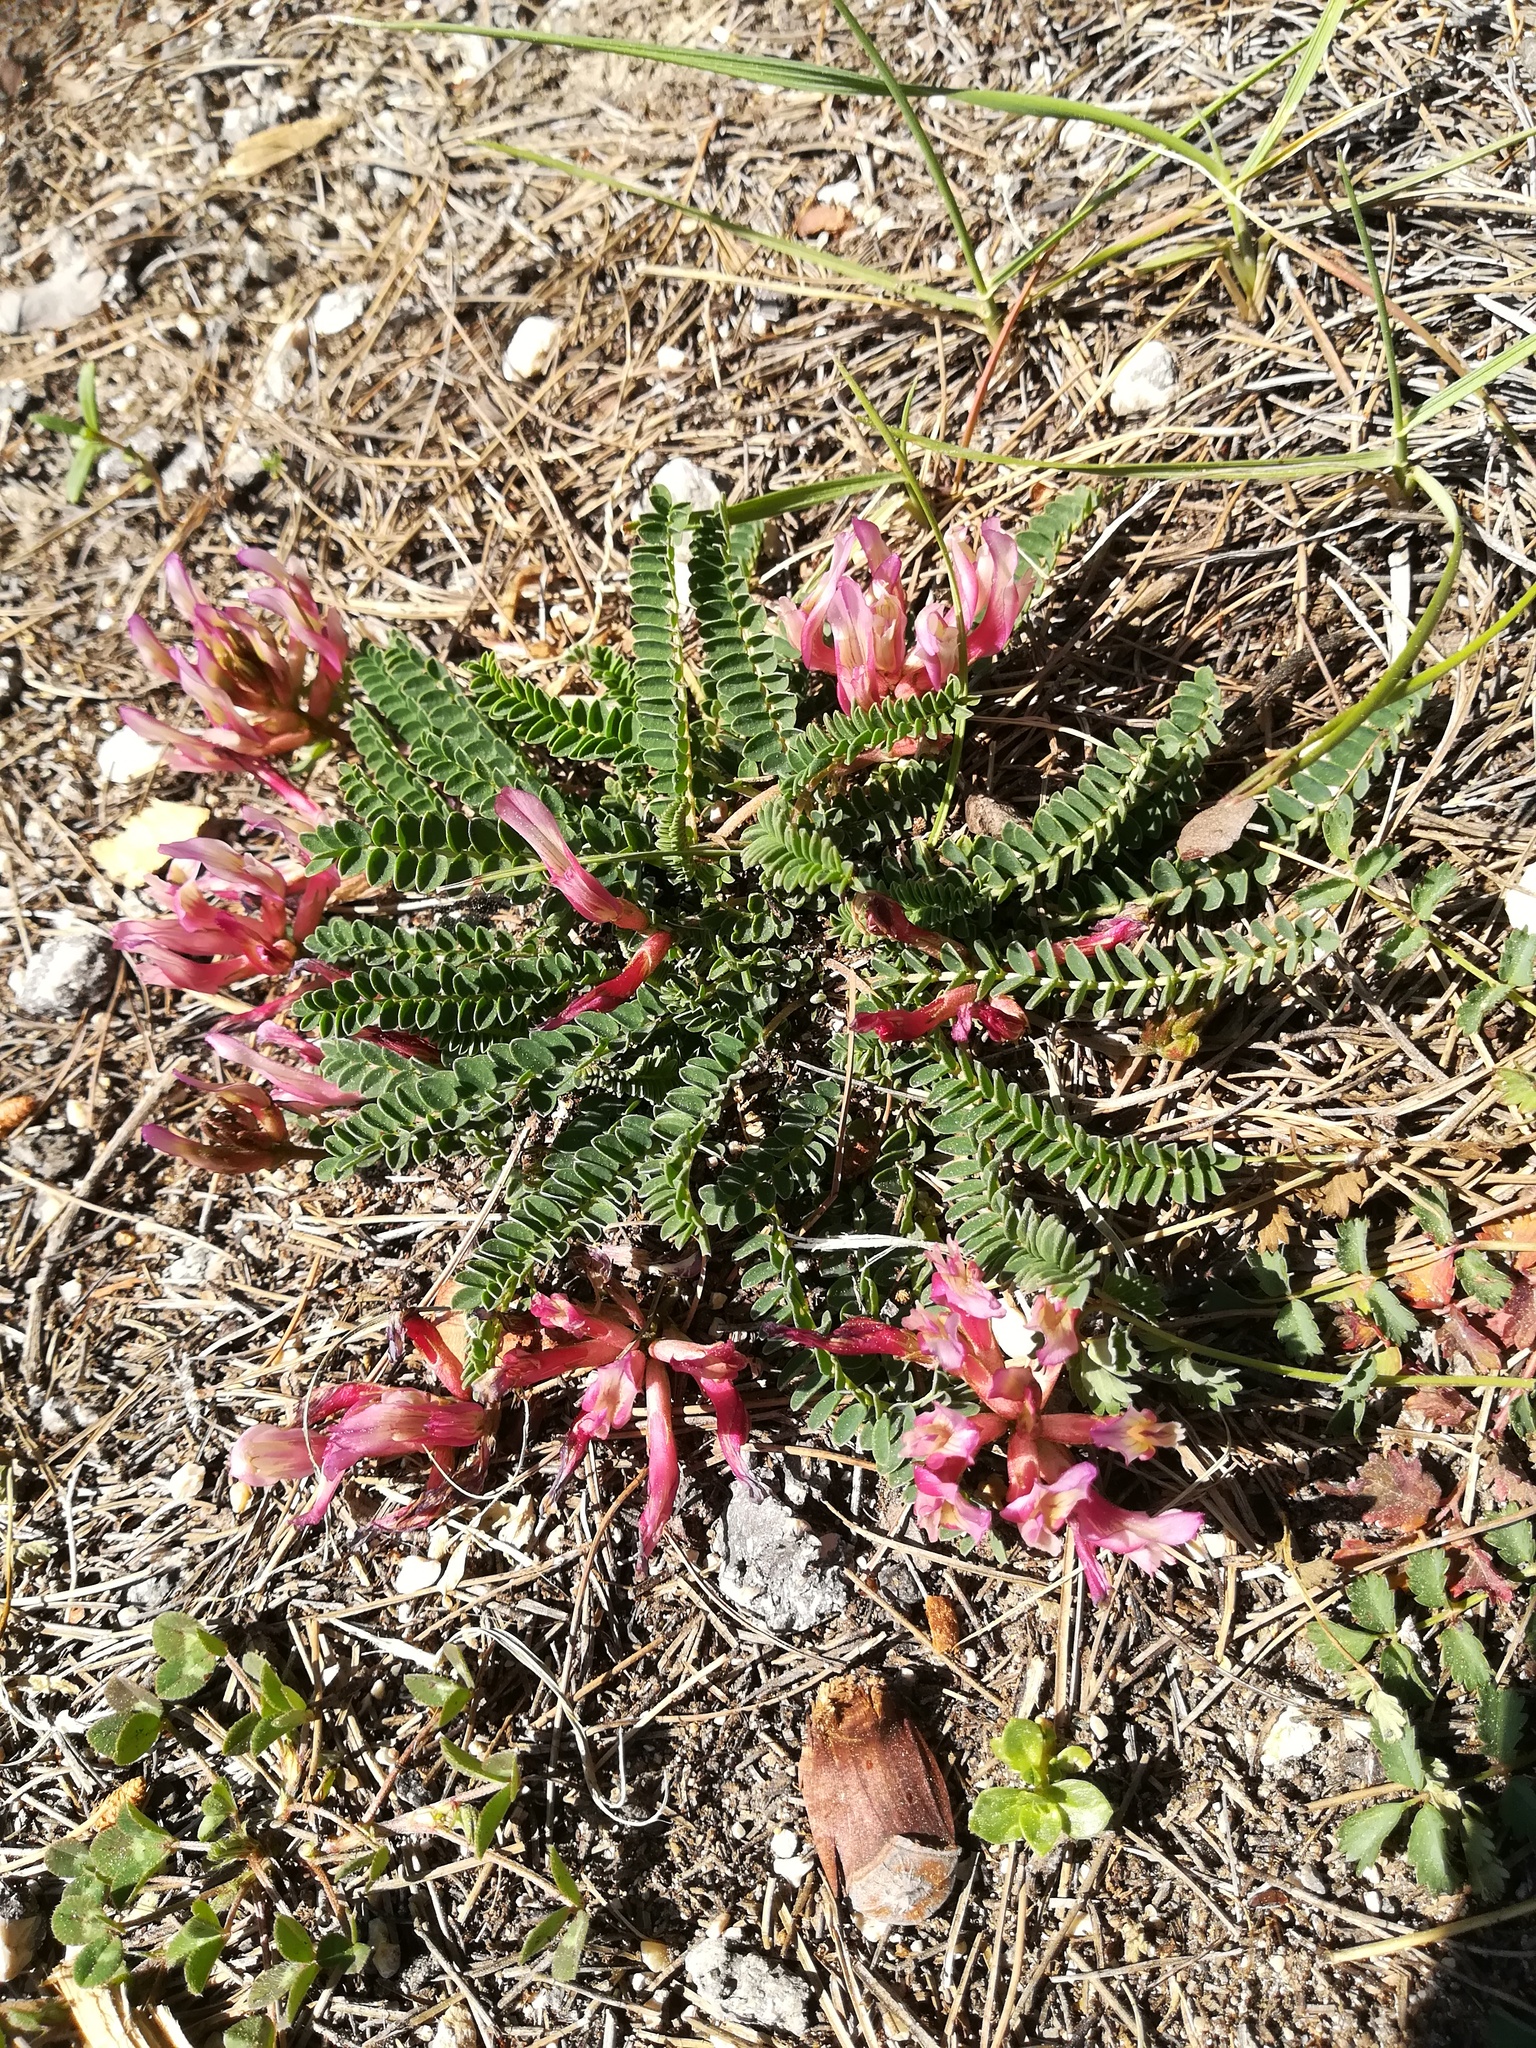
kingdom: Plantae
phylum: Tracheophyta
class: Magnoliopsida
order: Fabales
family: Fabaceae
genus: Astragalus
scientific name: Astragalus monspessulanus
